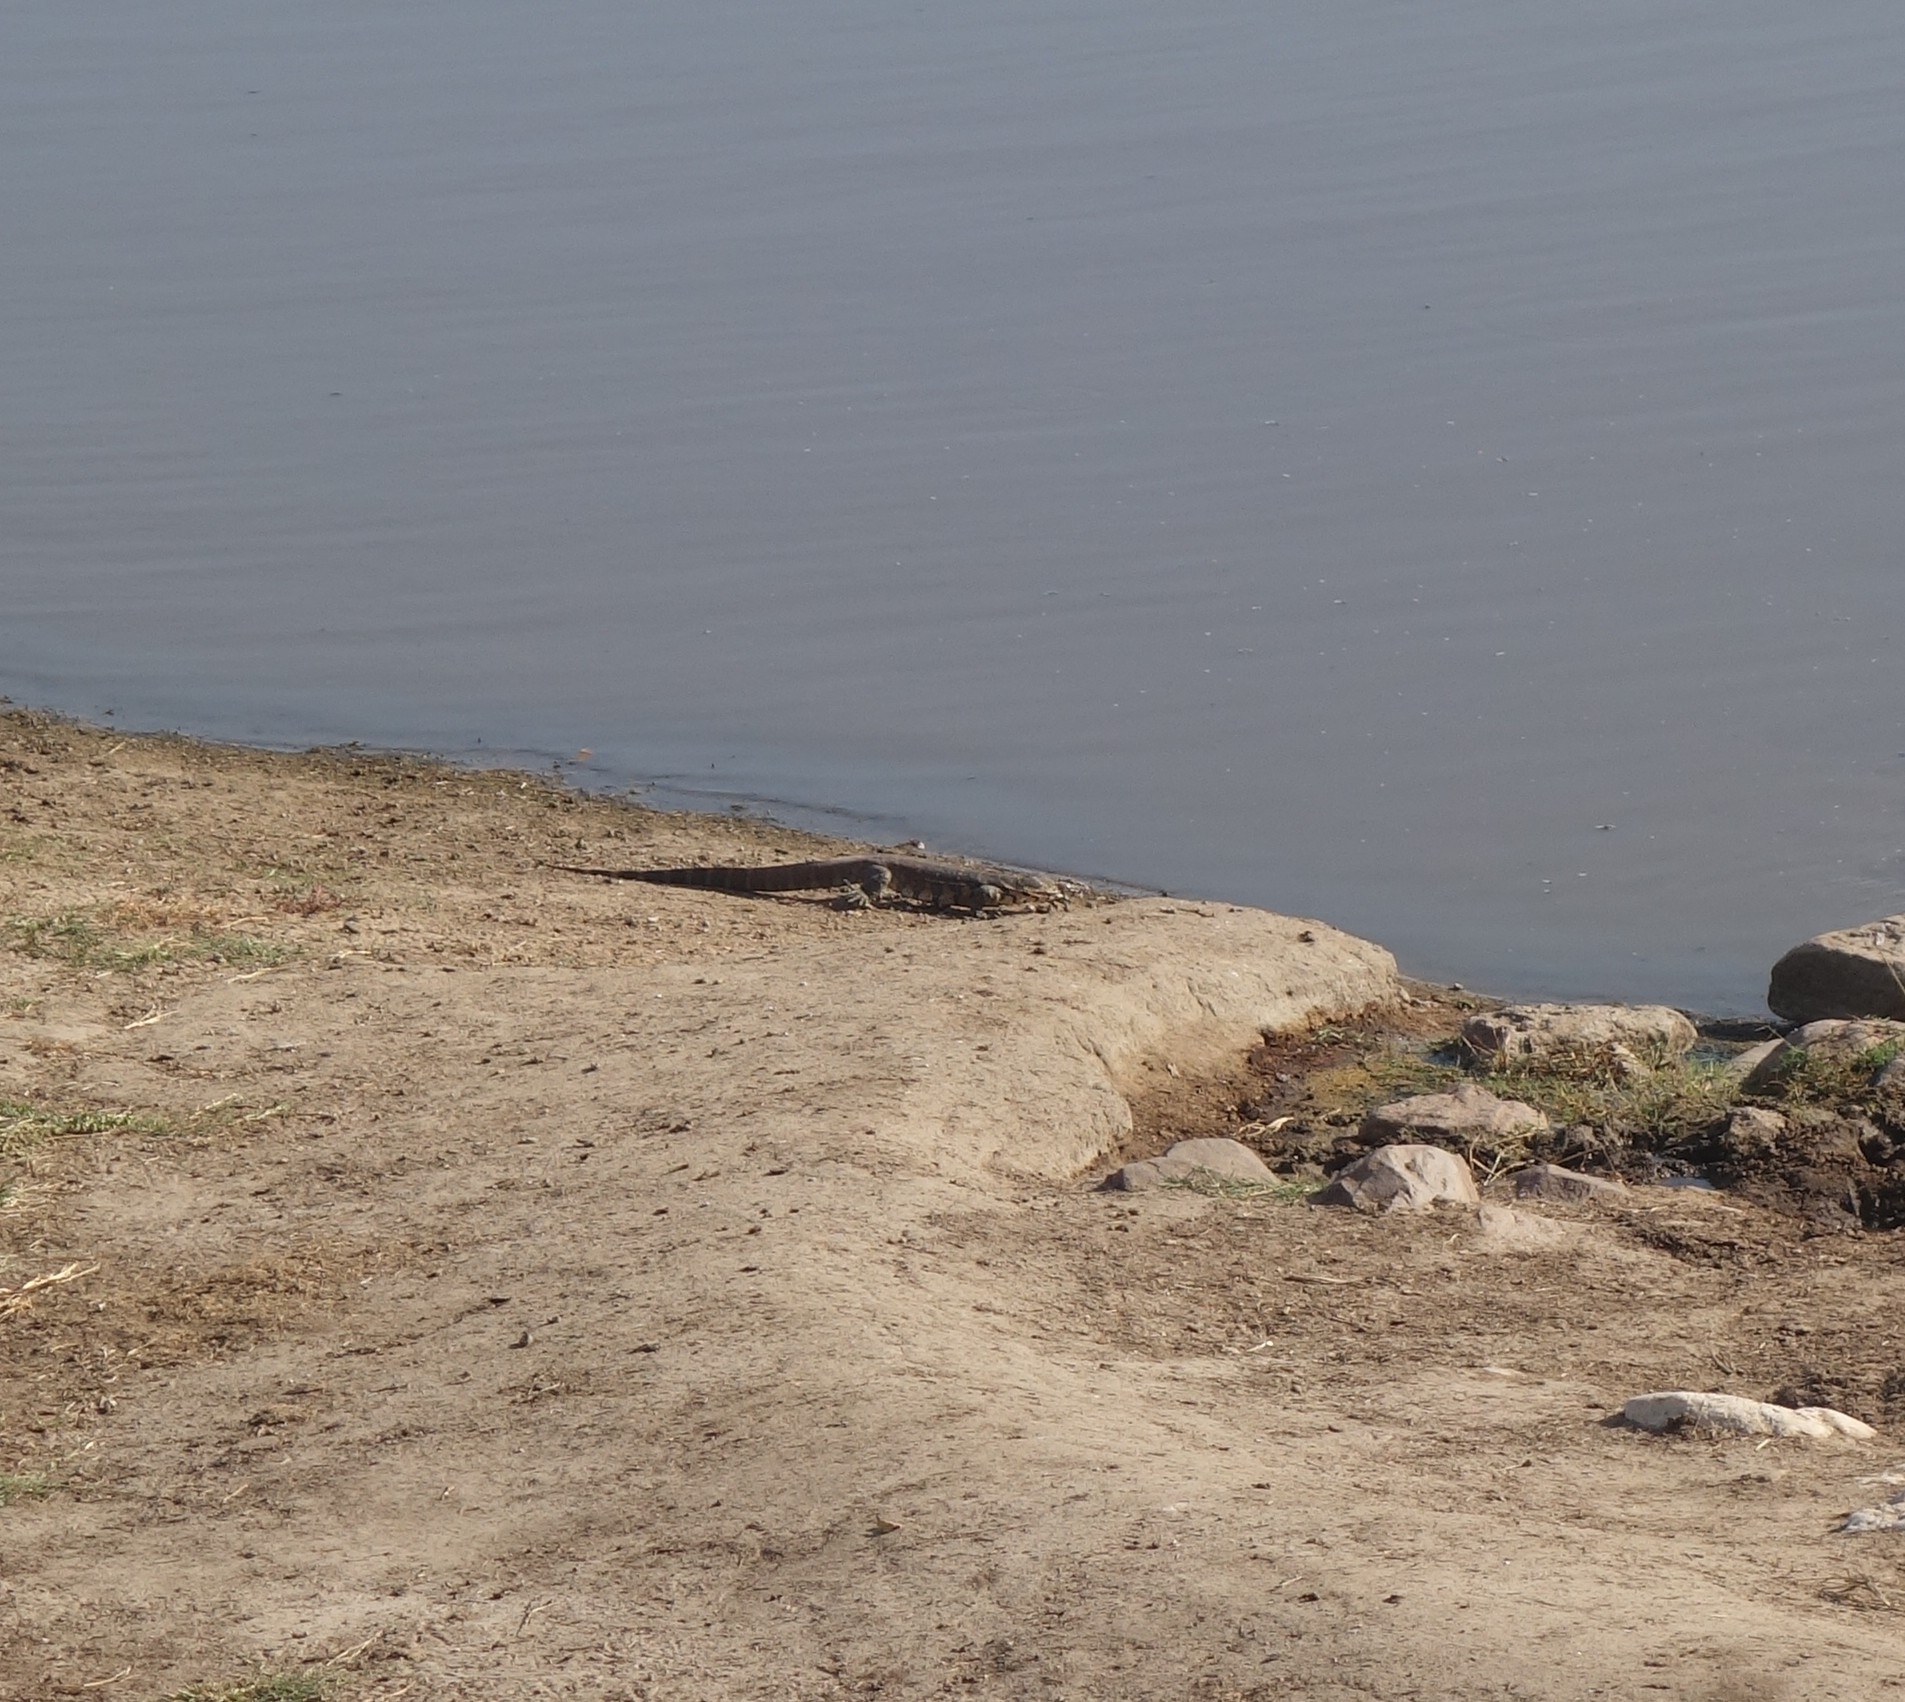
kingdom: Animalia
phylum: Chordata
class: Squamata
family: Varanidae
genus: Varanus
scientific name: Varanus niloticus
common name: Nile monitor
